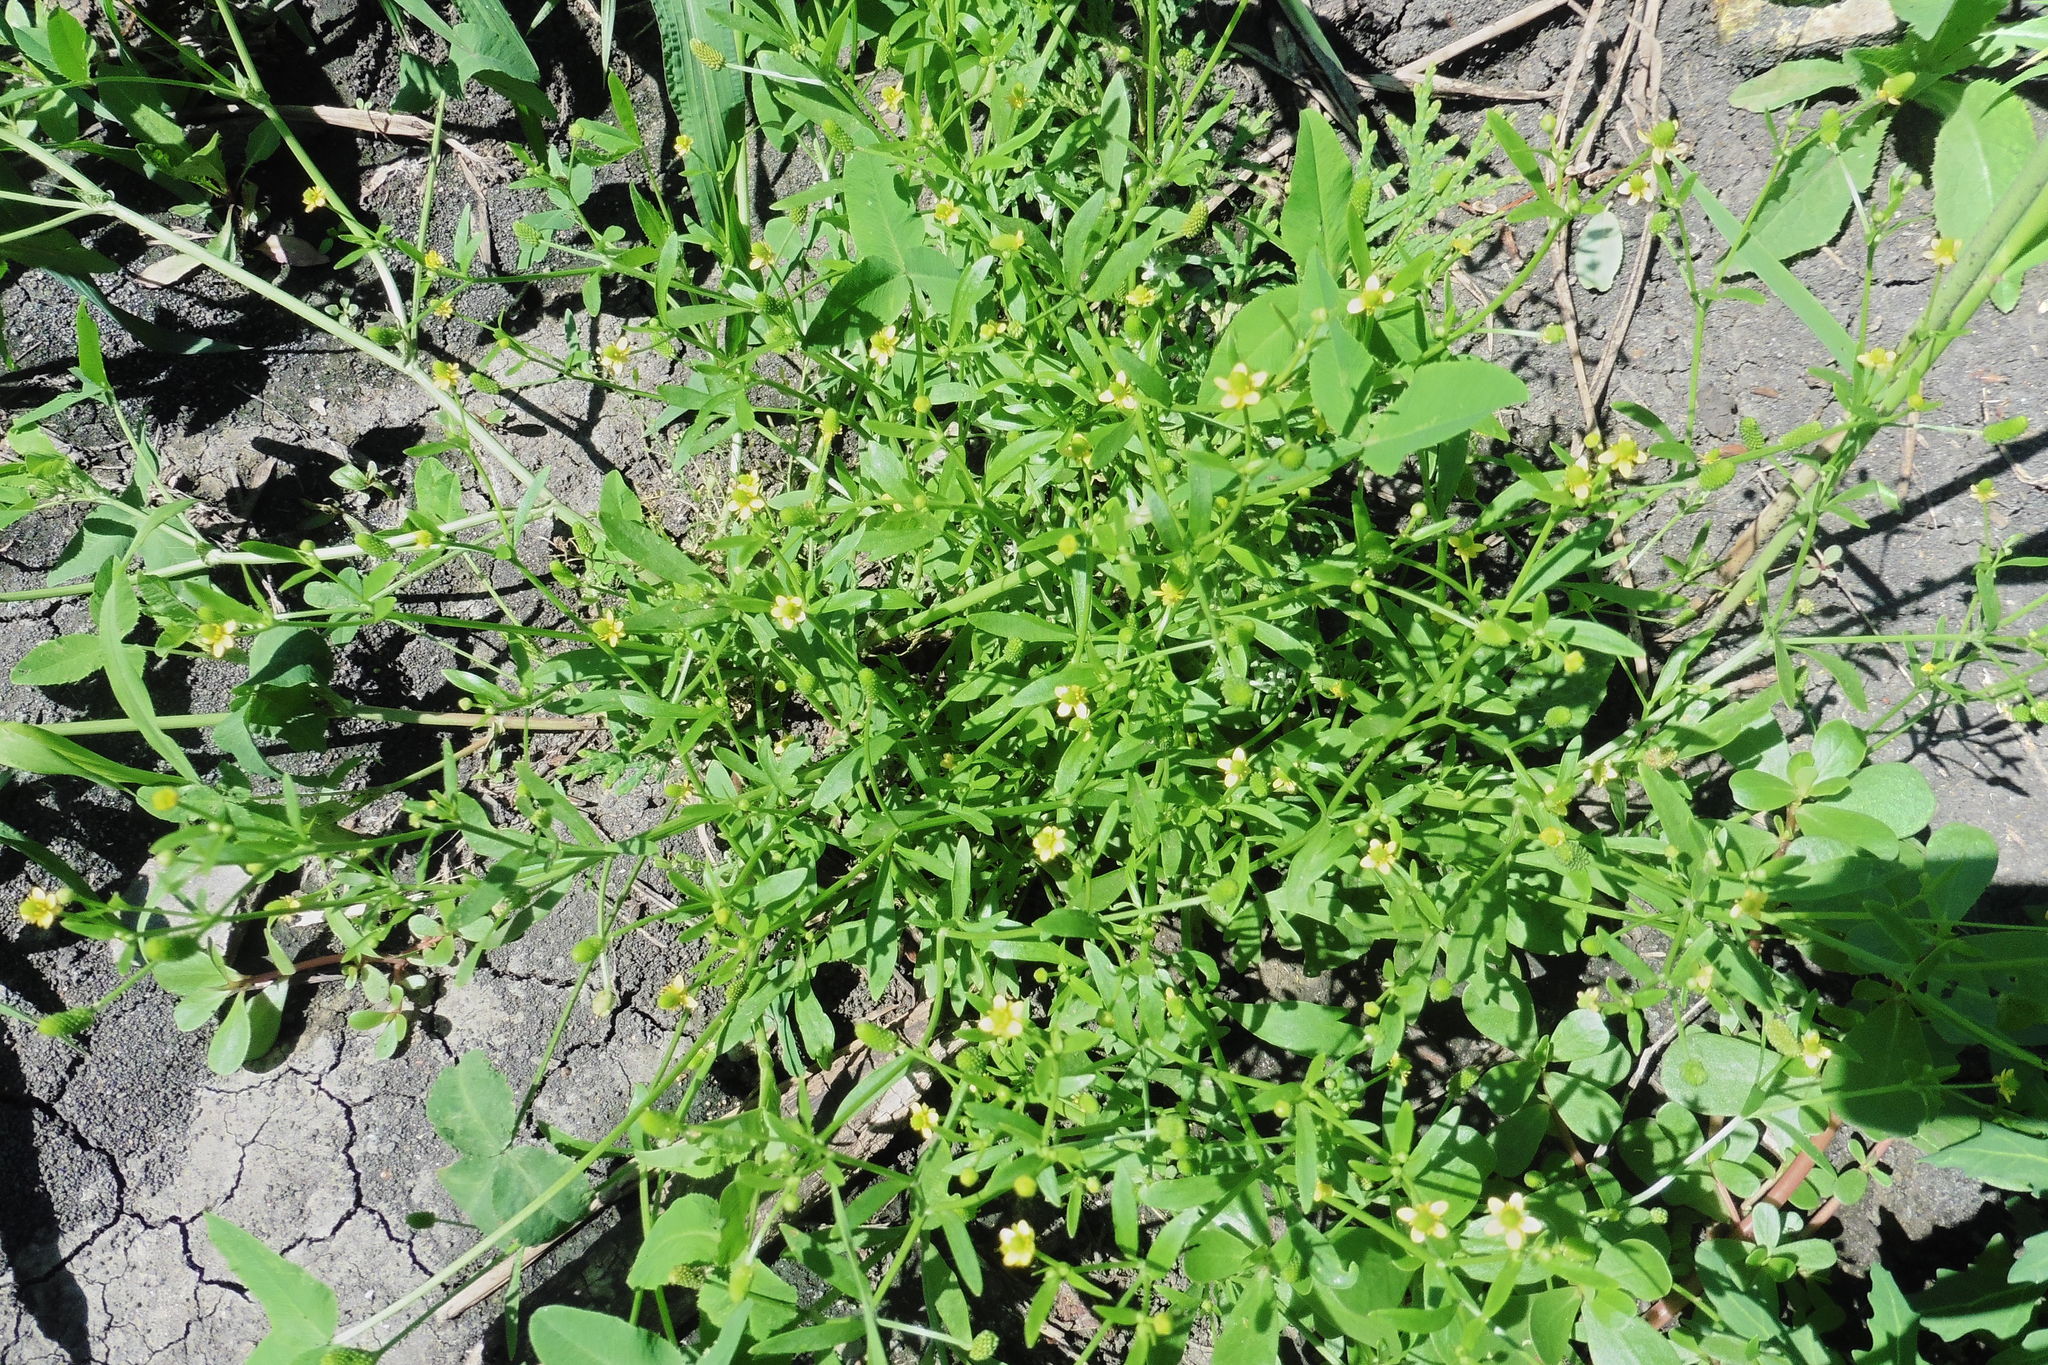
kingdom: Plantae
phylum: Tracheophyta
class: Magnoliopsida
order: Ranunculales
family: Ranunculaceae
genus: Ranunculus
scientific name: Ranunculus sceleratus
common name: Celery-leaved buttercup
